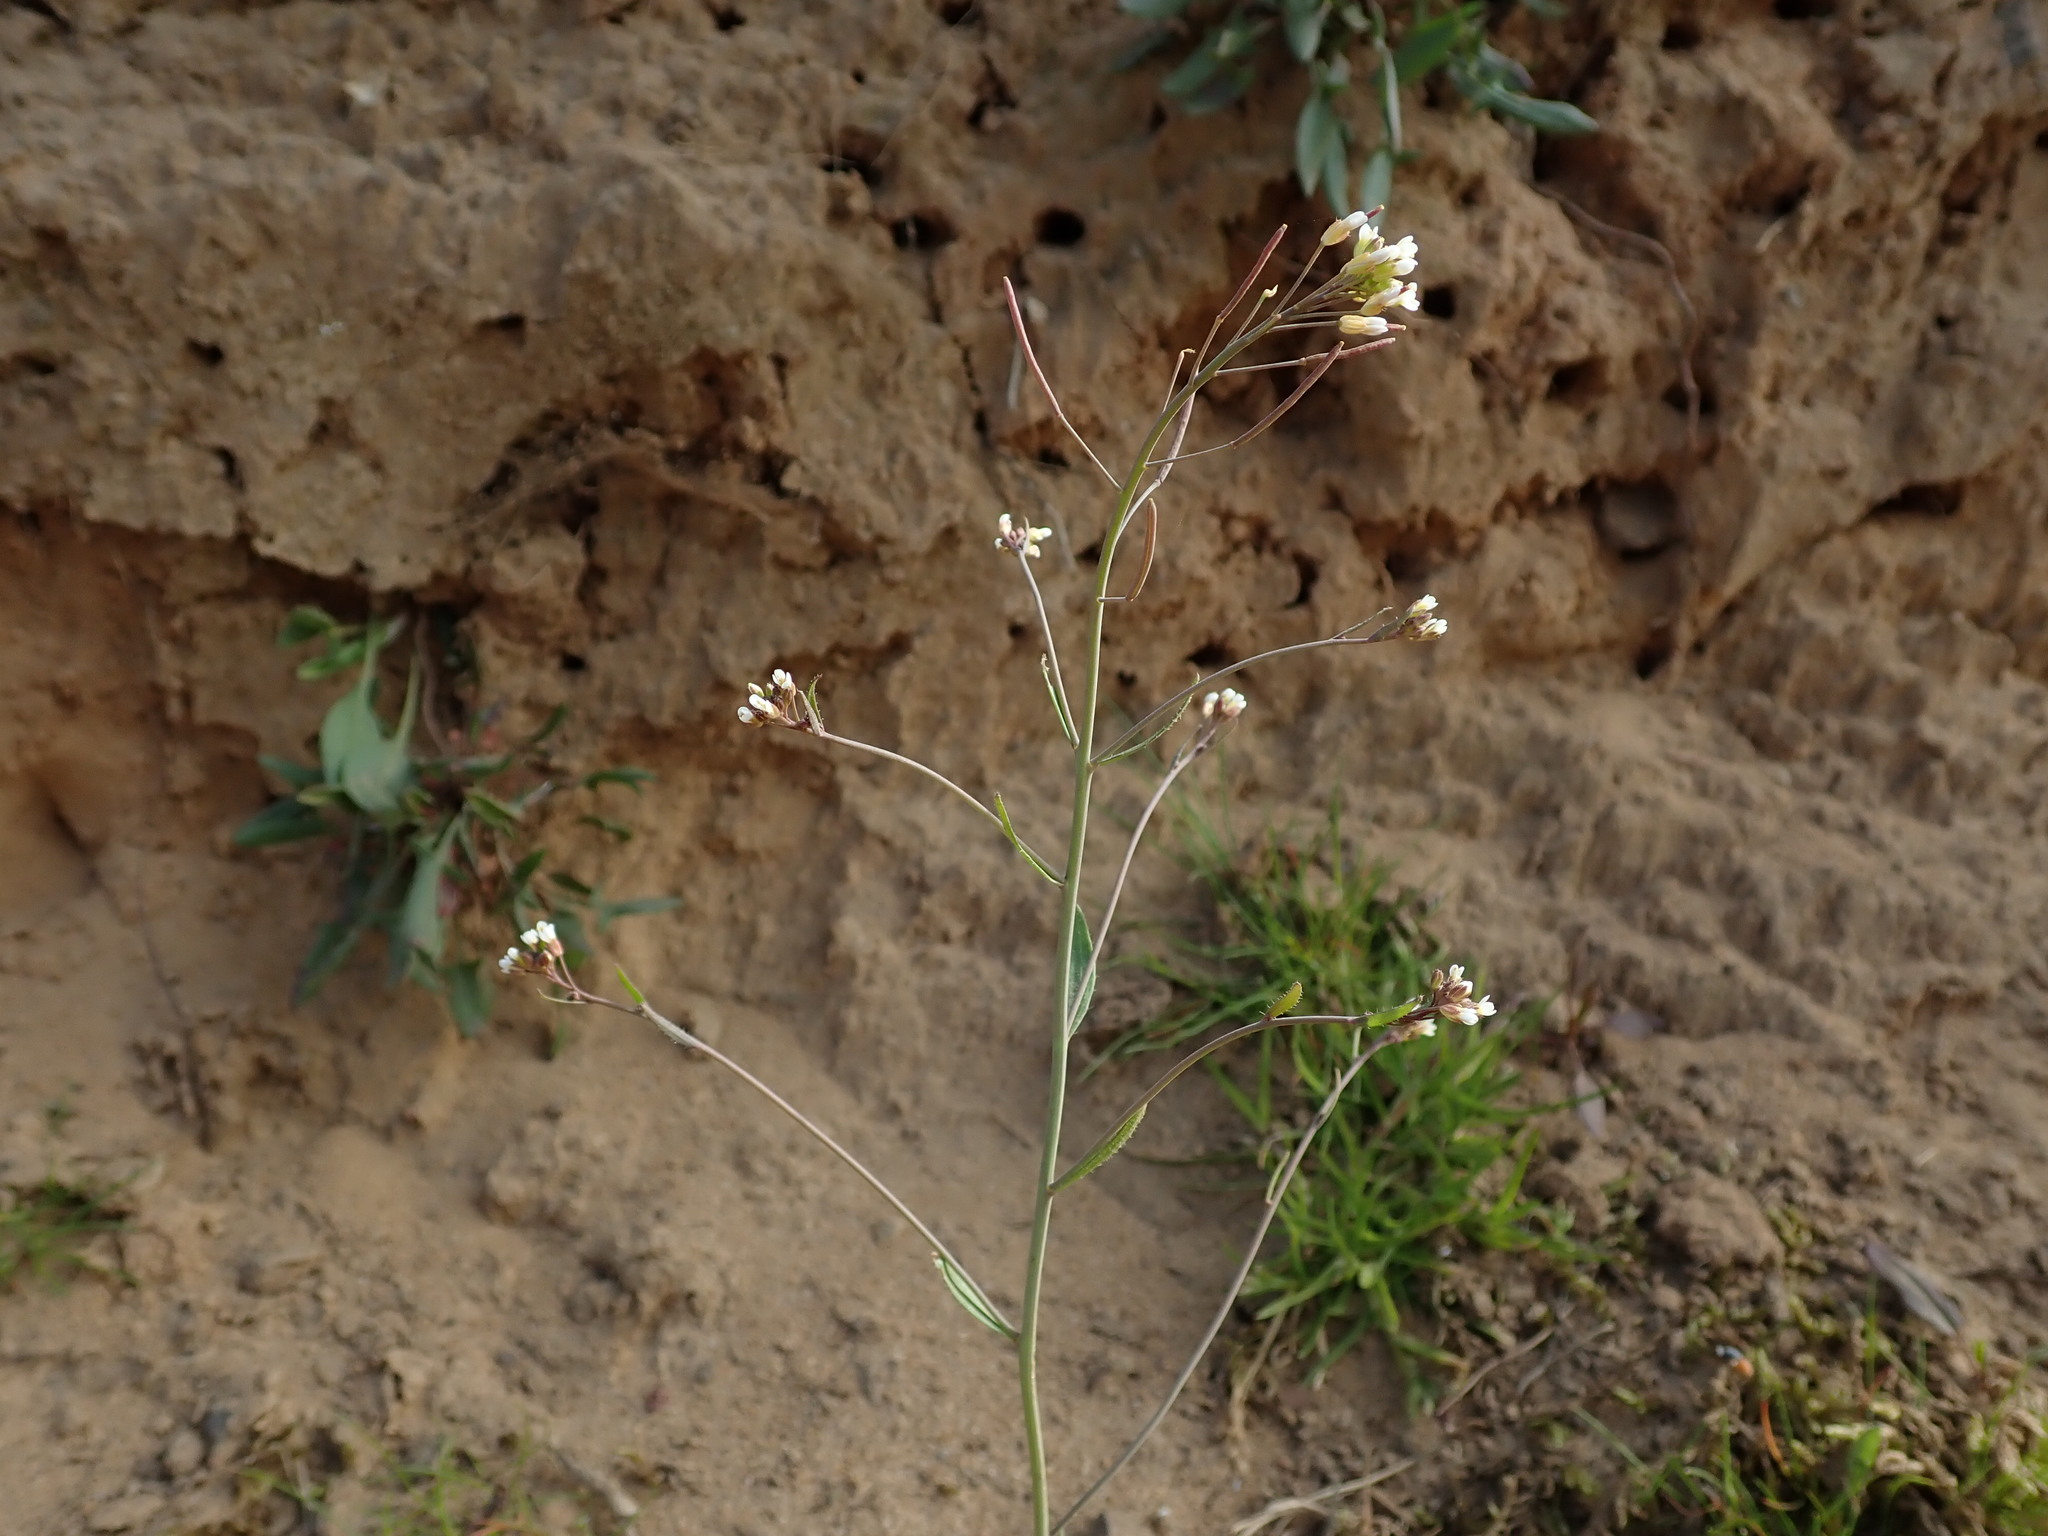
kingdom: Plantae
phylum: Tracheophyta
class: Magnoliopsida
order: Brassicales
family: Brassicaceae
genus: Arabidopsis
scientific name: Arabidopsis thaliana
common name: Thale cress
